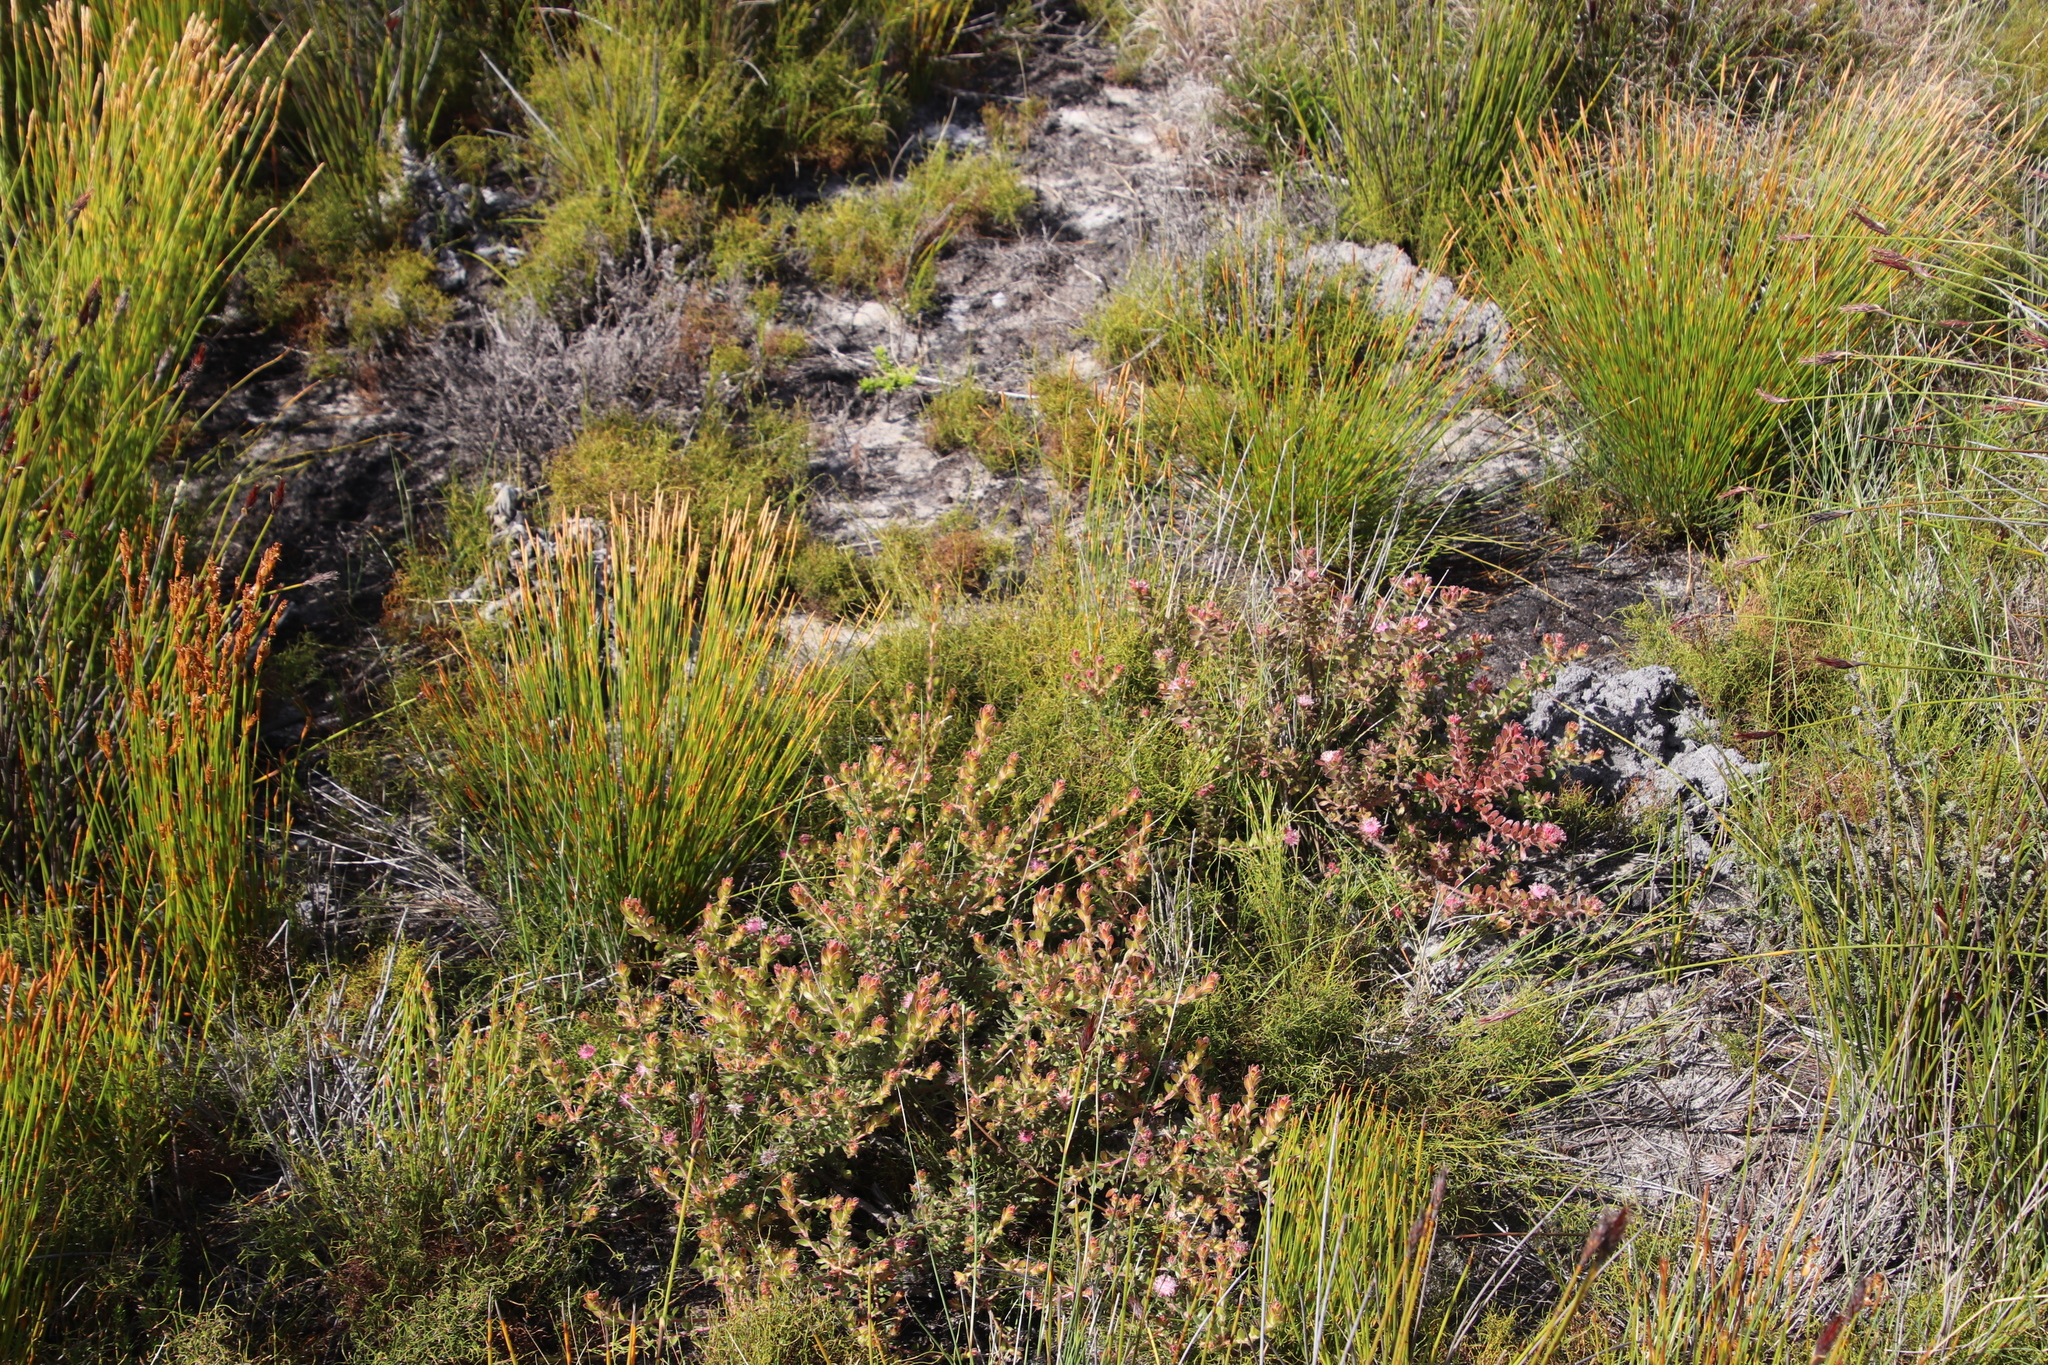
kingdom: Plantae
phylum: Tracheophyta
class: Magnoliopsida
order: Proteales
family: Proteaceae
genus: Diastella
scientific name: Diastella divaricata
